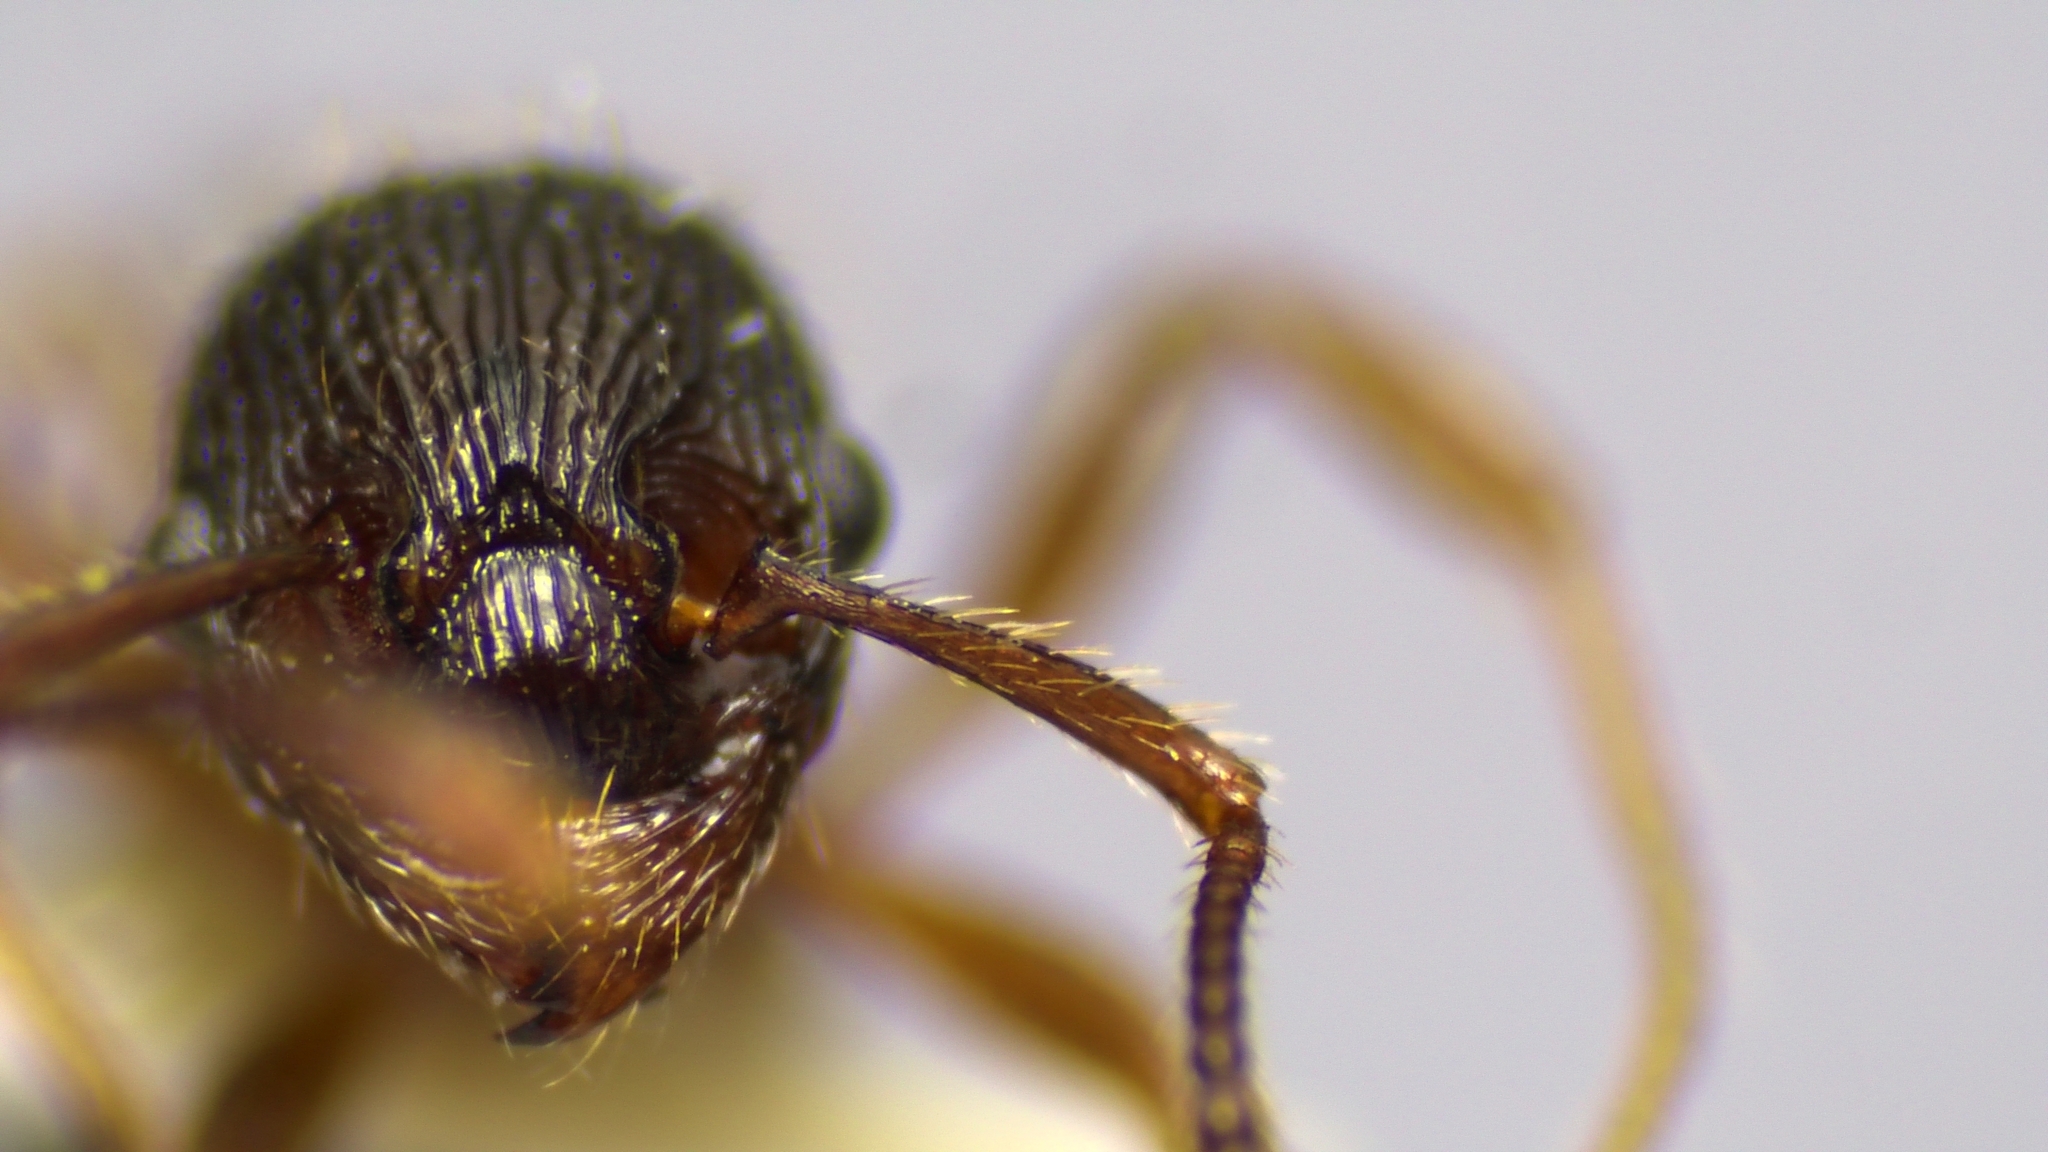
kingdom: Animalia
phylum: Arthropoda
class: Insecta
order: Hymenoptera
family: Formicidae
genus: Myrmica
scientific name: Myrmica latifrons
